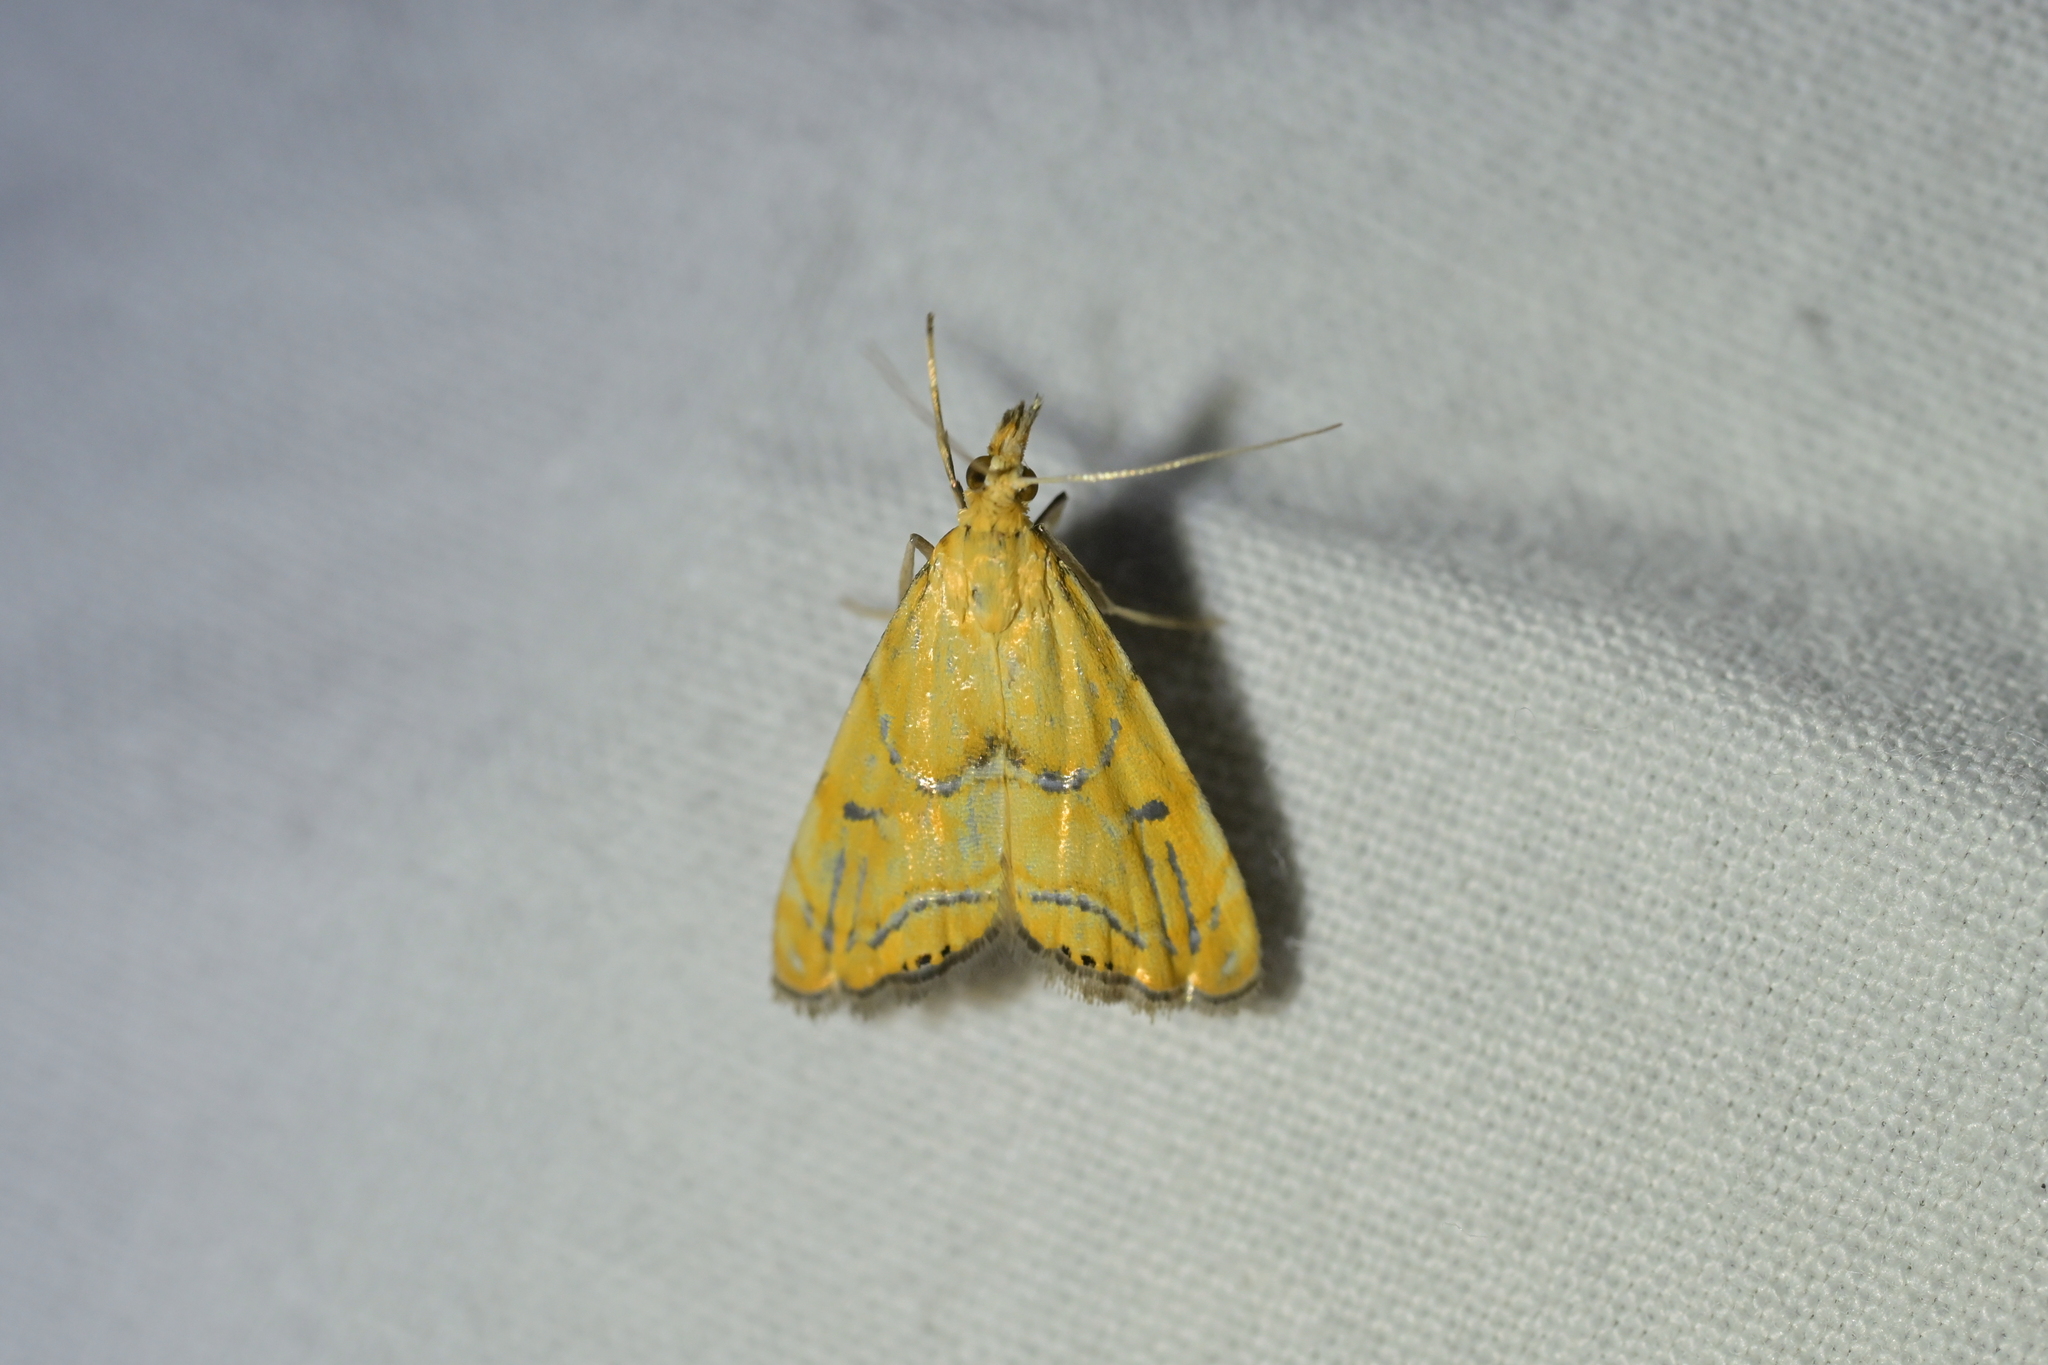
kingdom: Animalia
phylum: Arthropoda
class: Insecta
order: Lepidoptera
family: Crambidae
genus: Glaucocharis
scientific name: Glaucocharis auriscriptella
